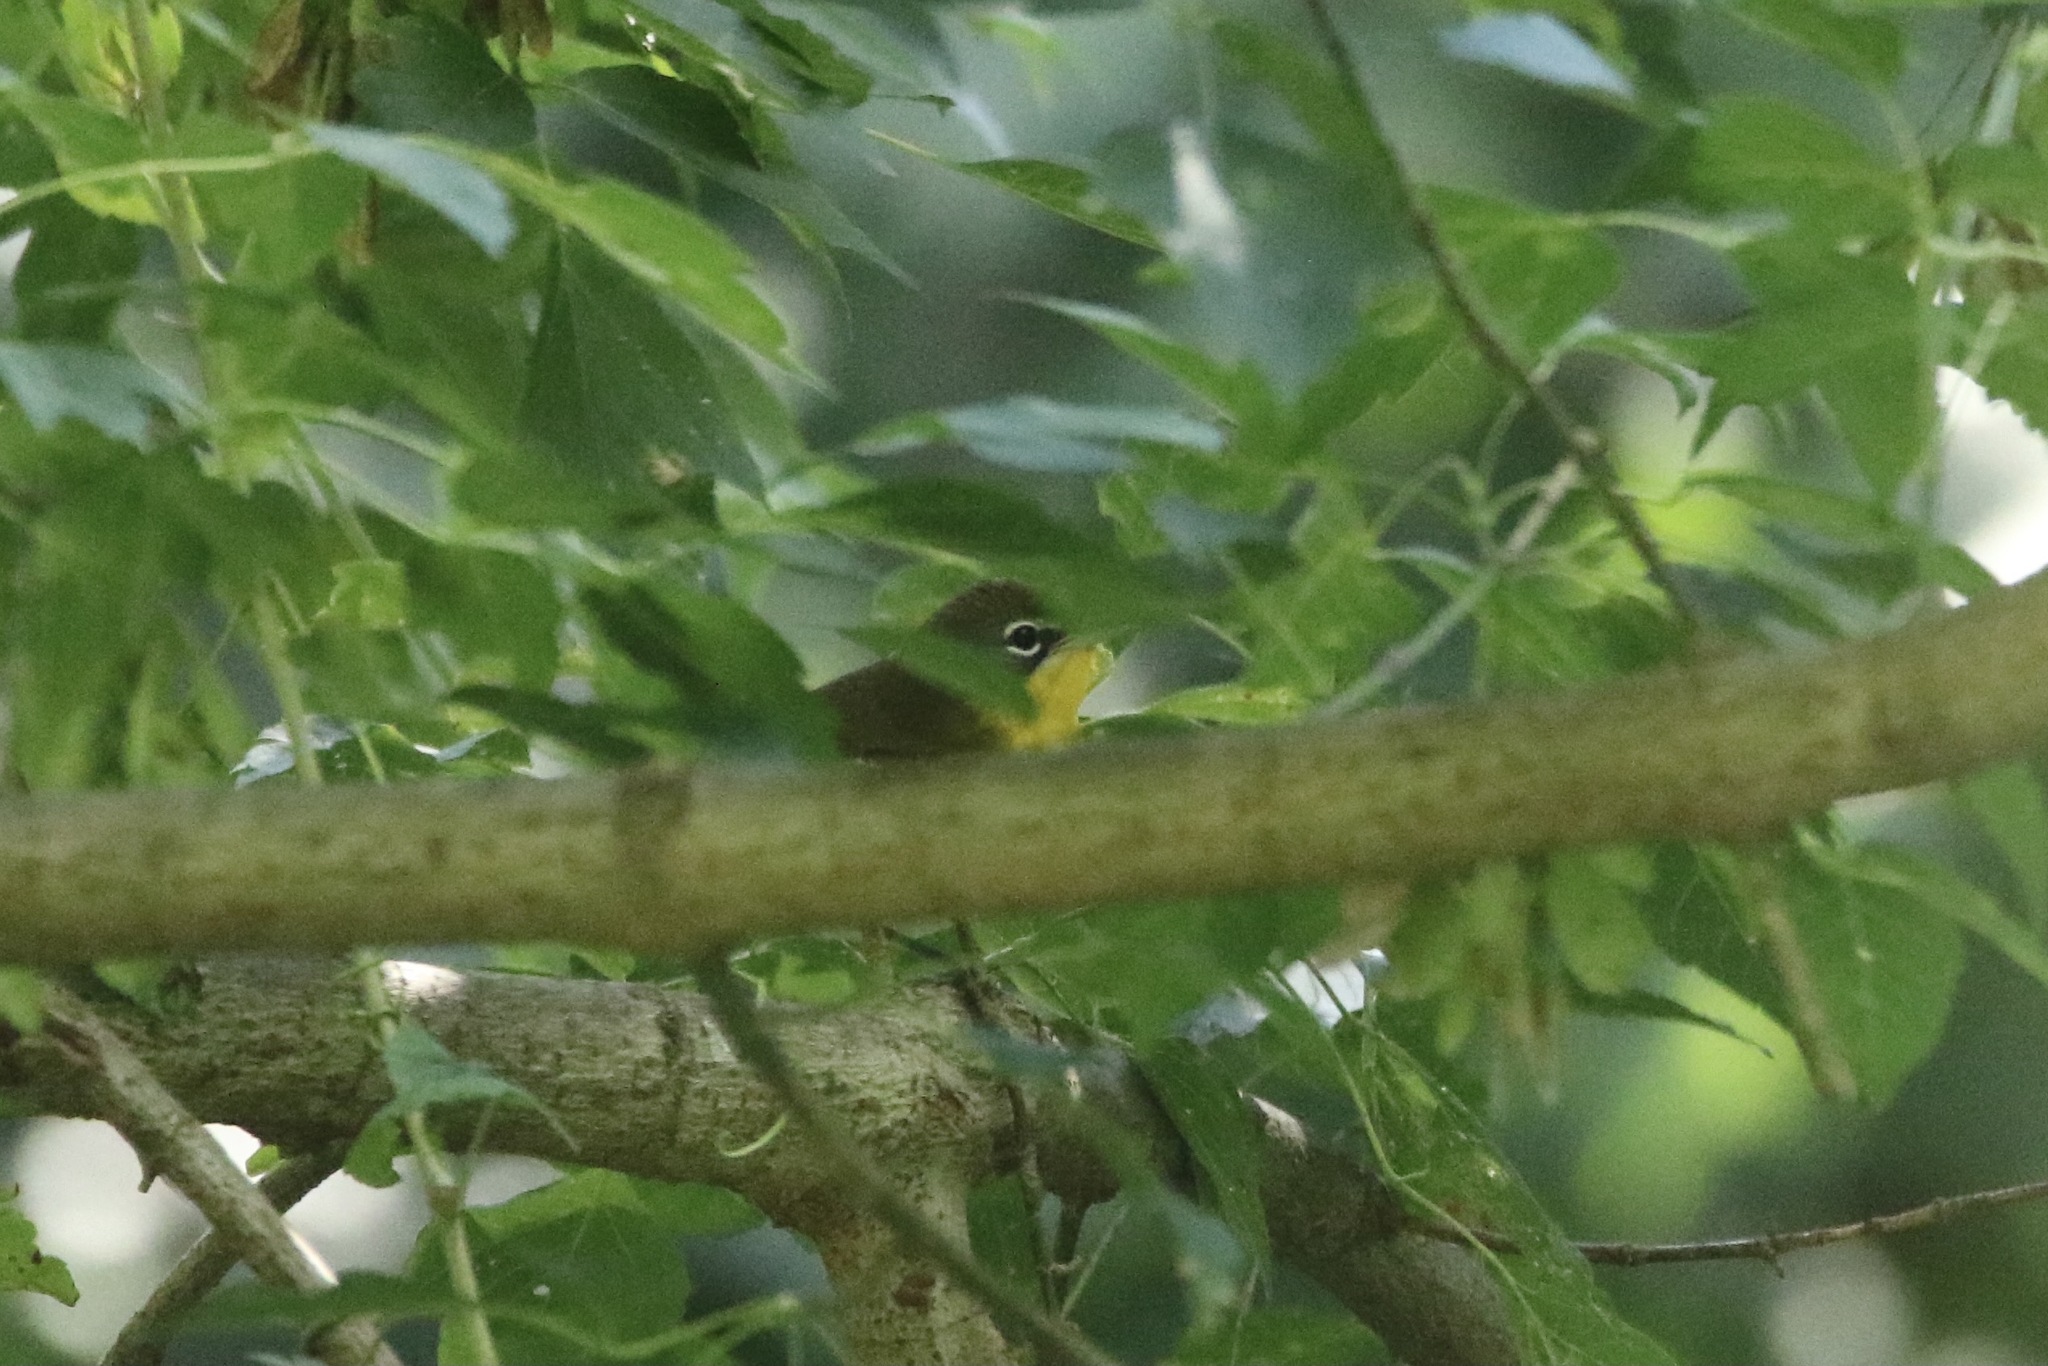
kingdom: Animalia
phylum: Chordata
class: Aves
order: Passeriformes
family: Parulidae
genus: Icteria
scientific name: Icteria virens
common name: Yellow-breasted chat
